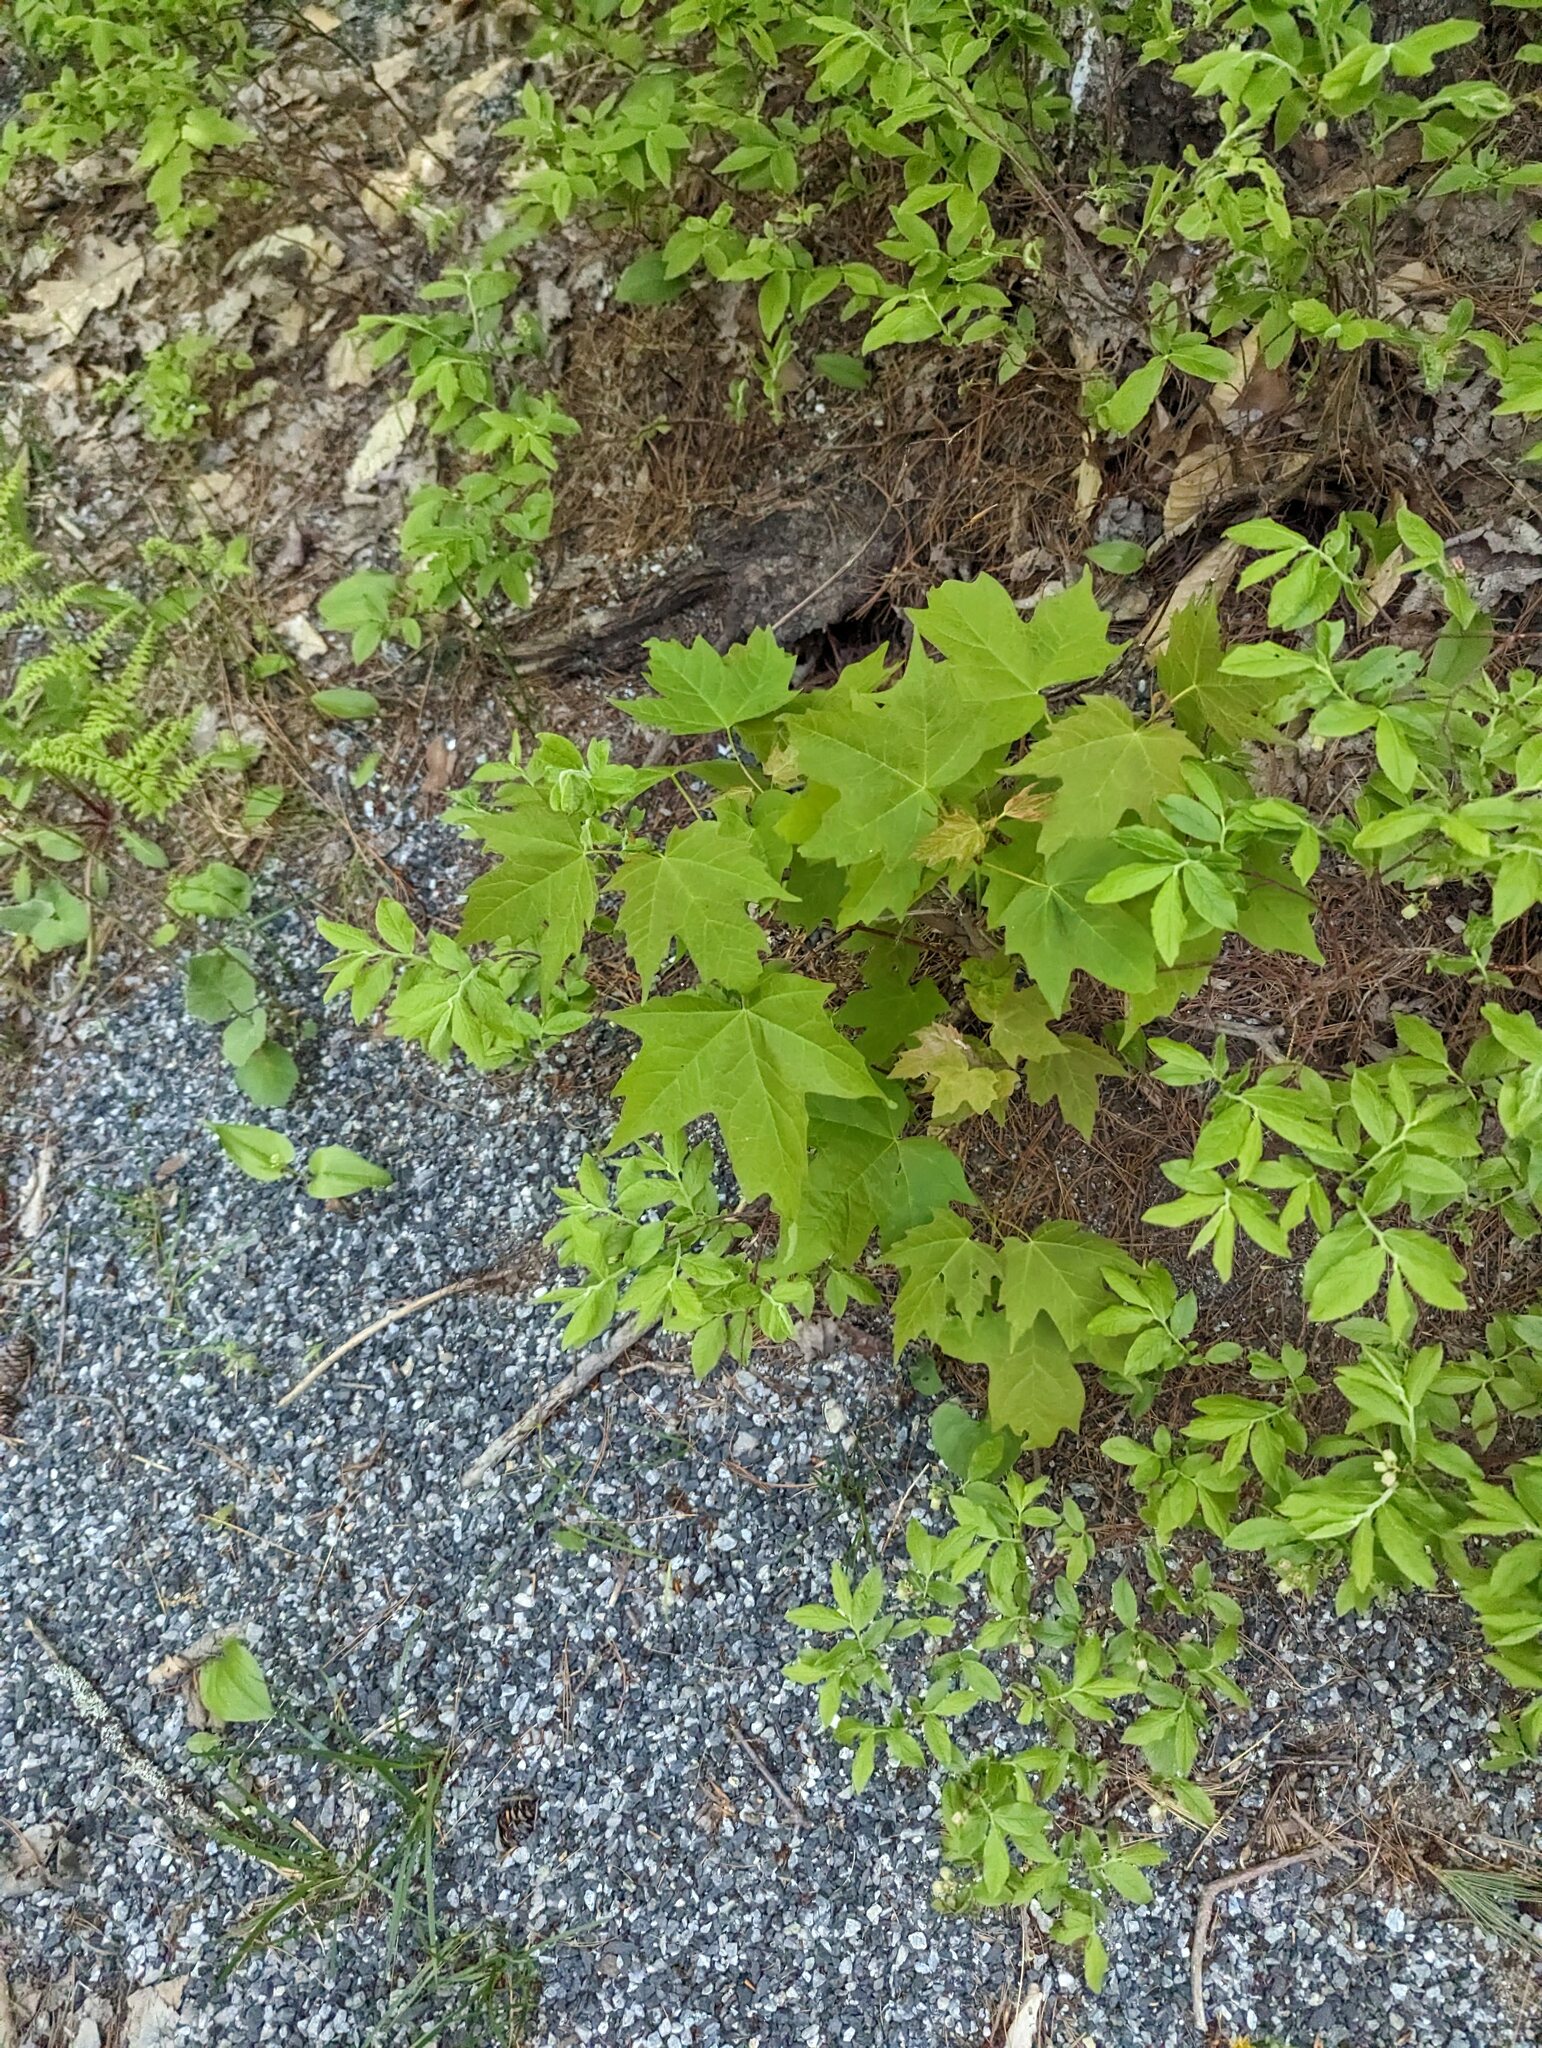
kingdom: Plantae
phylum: Tracheophyta
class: Magnoliopsida
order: Sapindales
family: Sapindaceae
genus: Acer
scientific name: Acer saccharum
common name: Sugar maple
